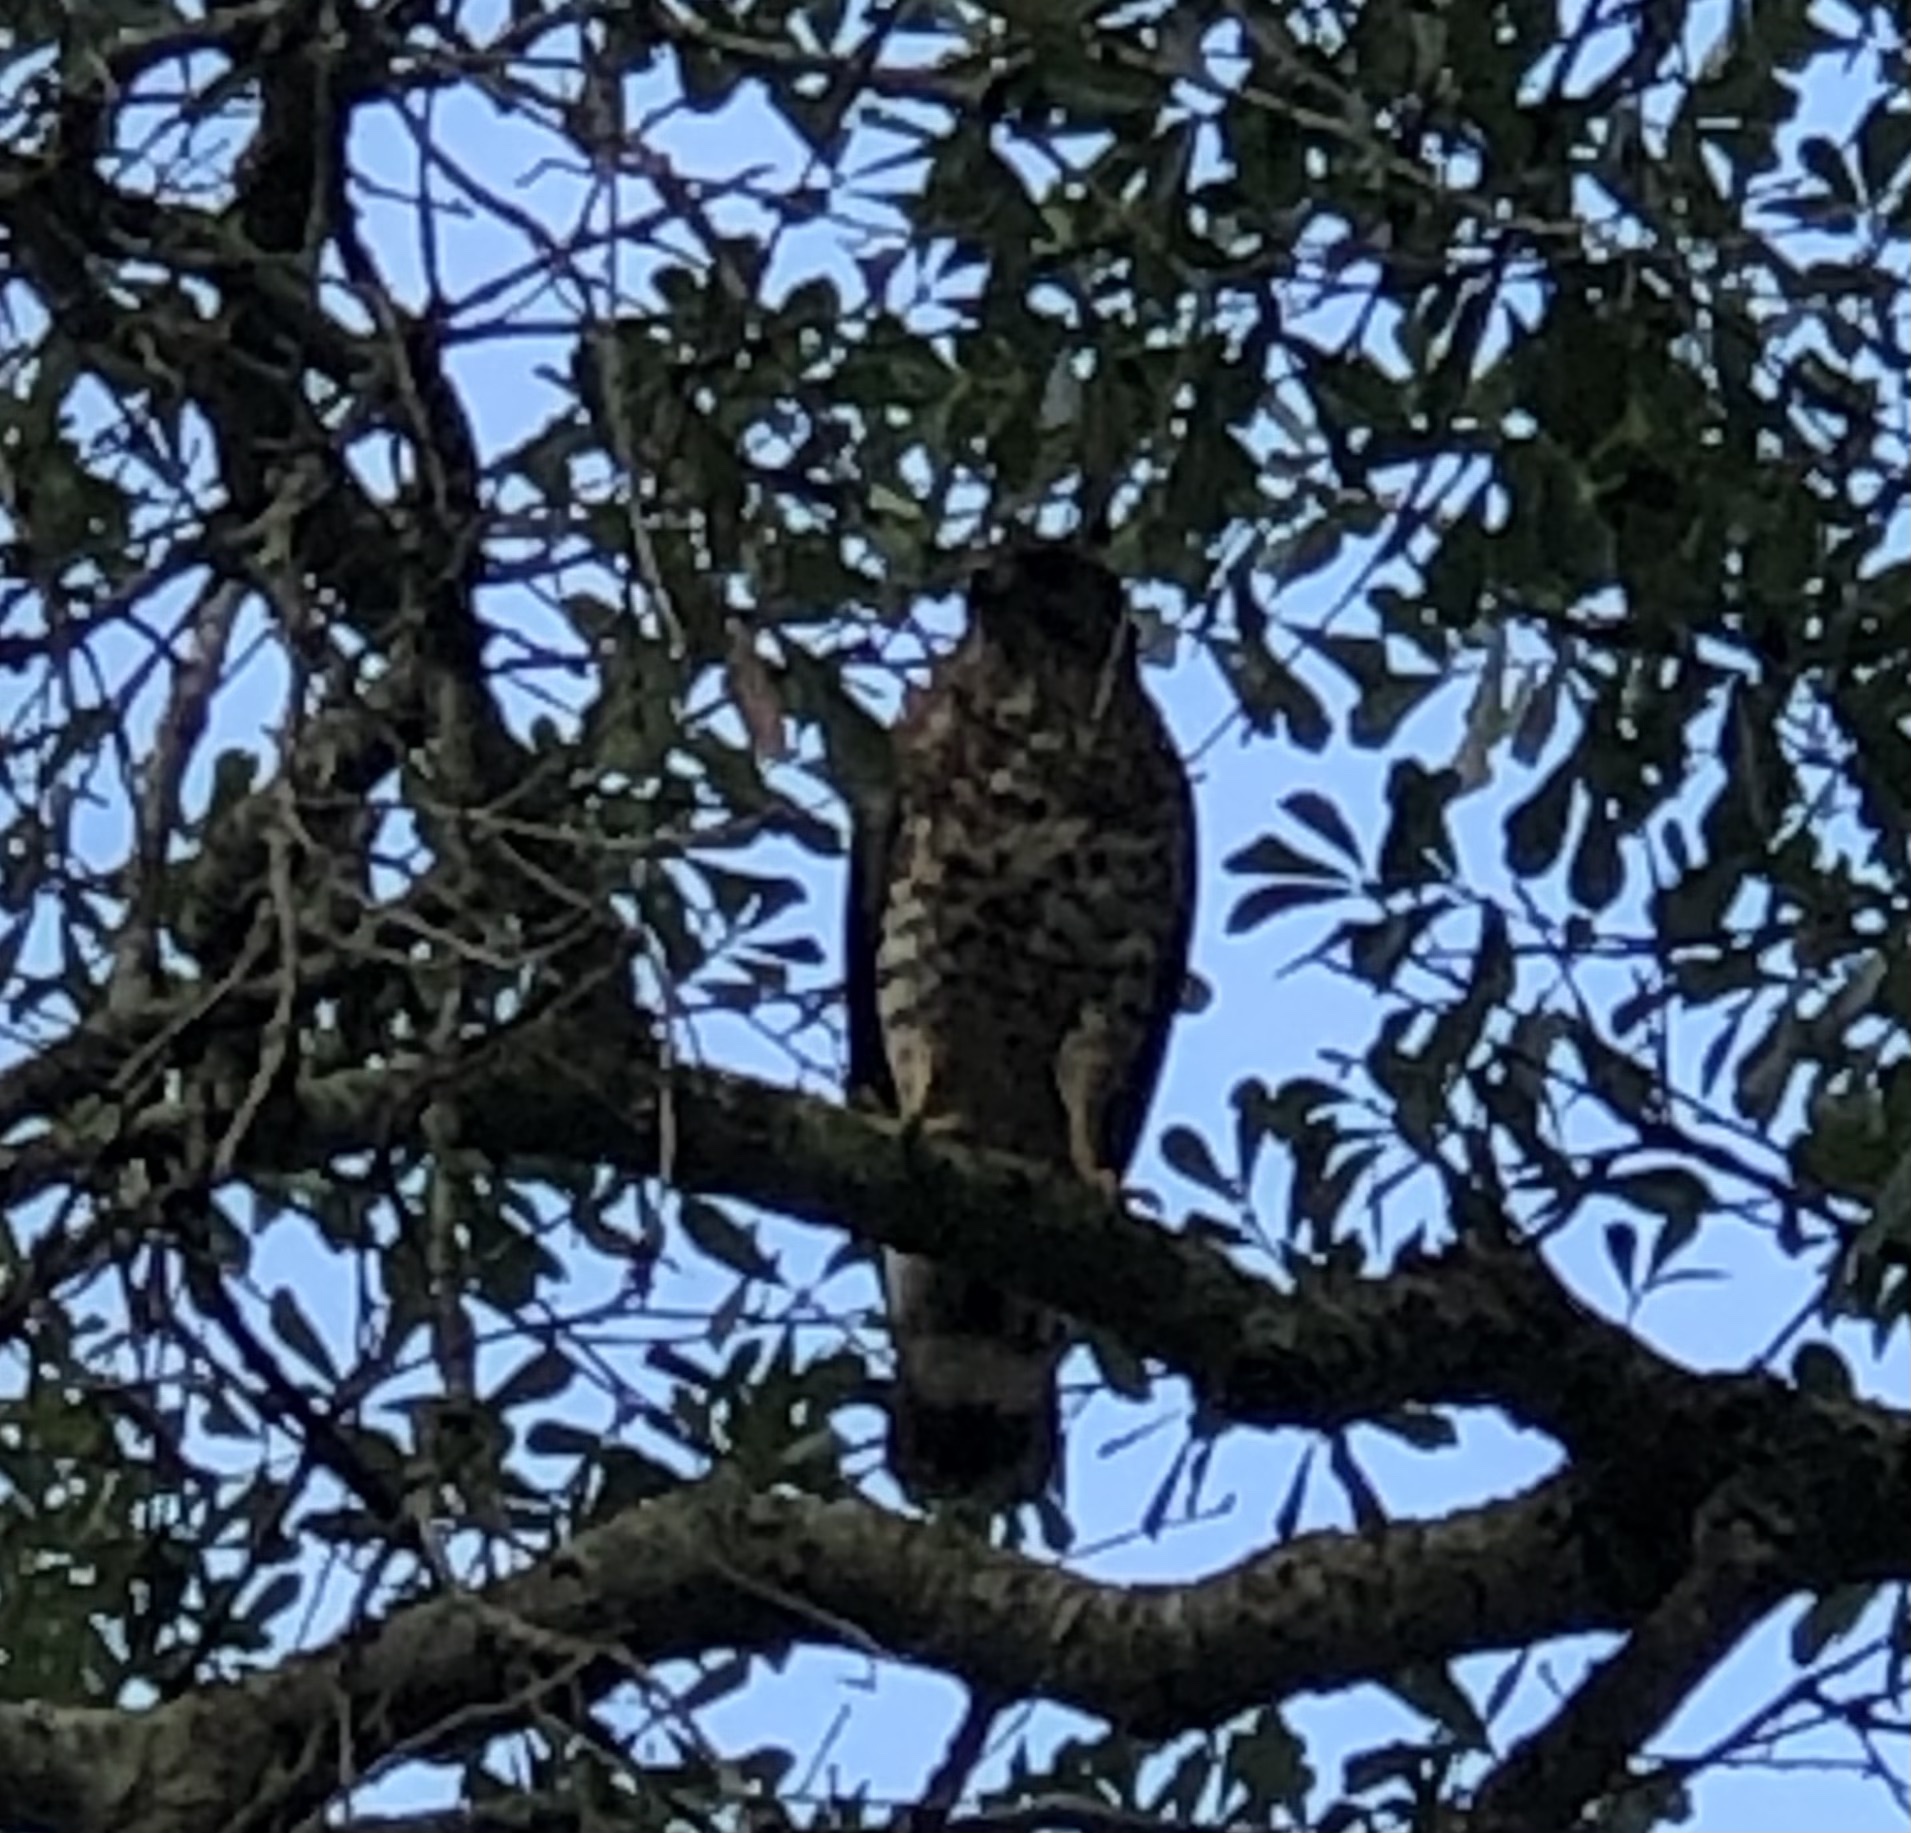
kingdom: Animalia
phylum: Chordata
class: Aves
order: Accipitriformes
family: Accipitridae
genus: Buteo
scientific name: Buteo platypterus
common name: Broad-winged hawk
